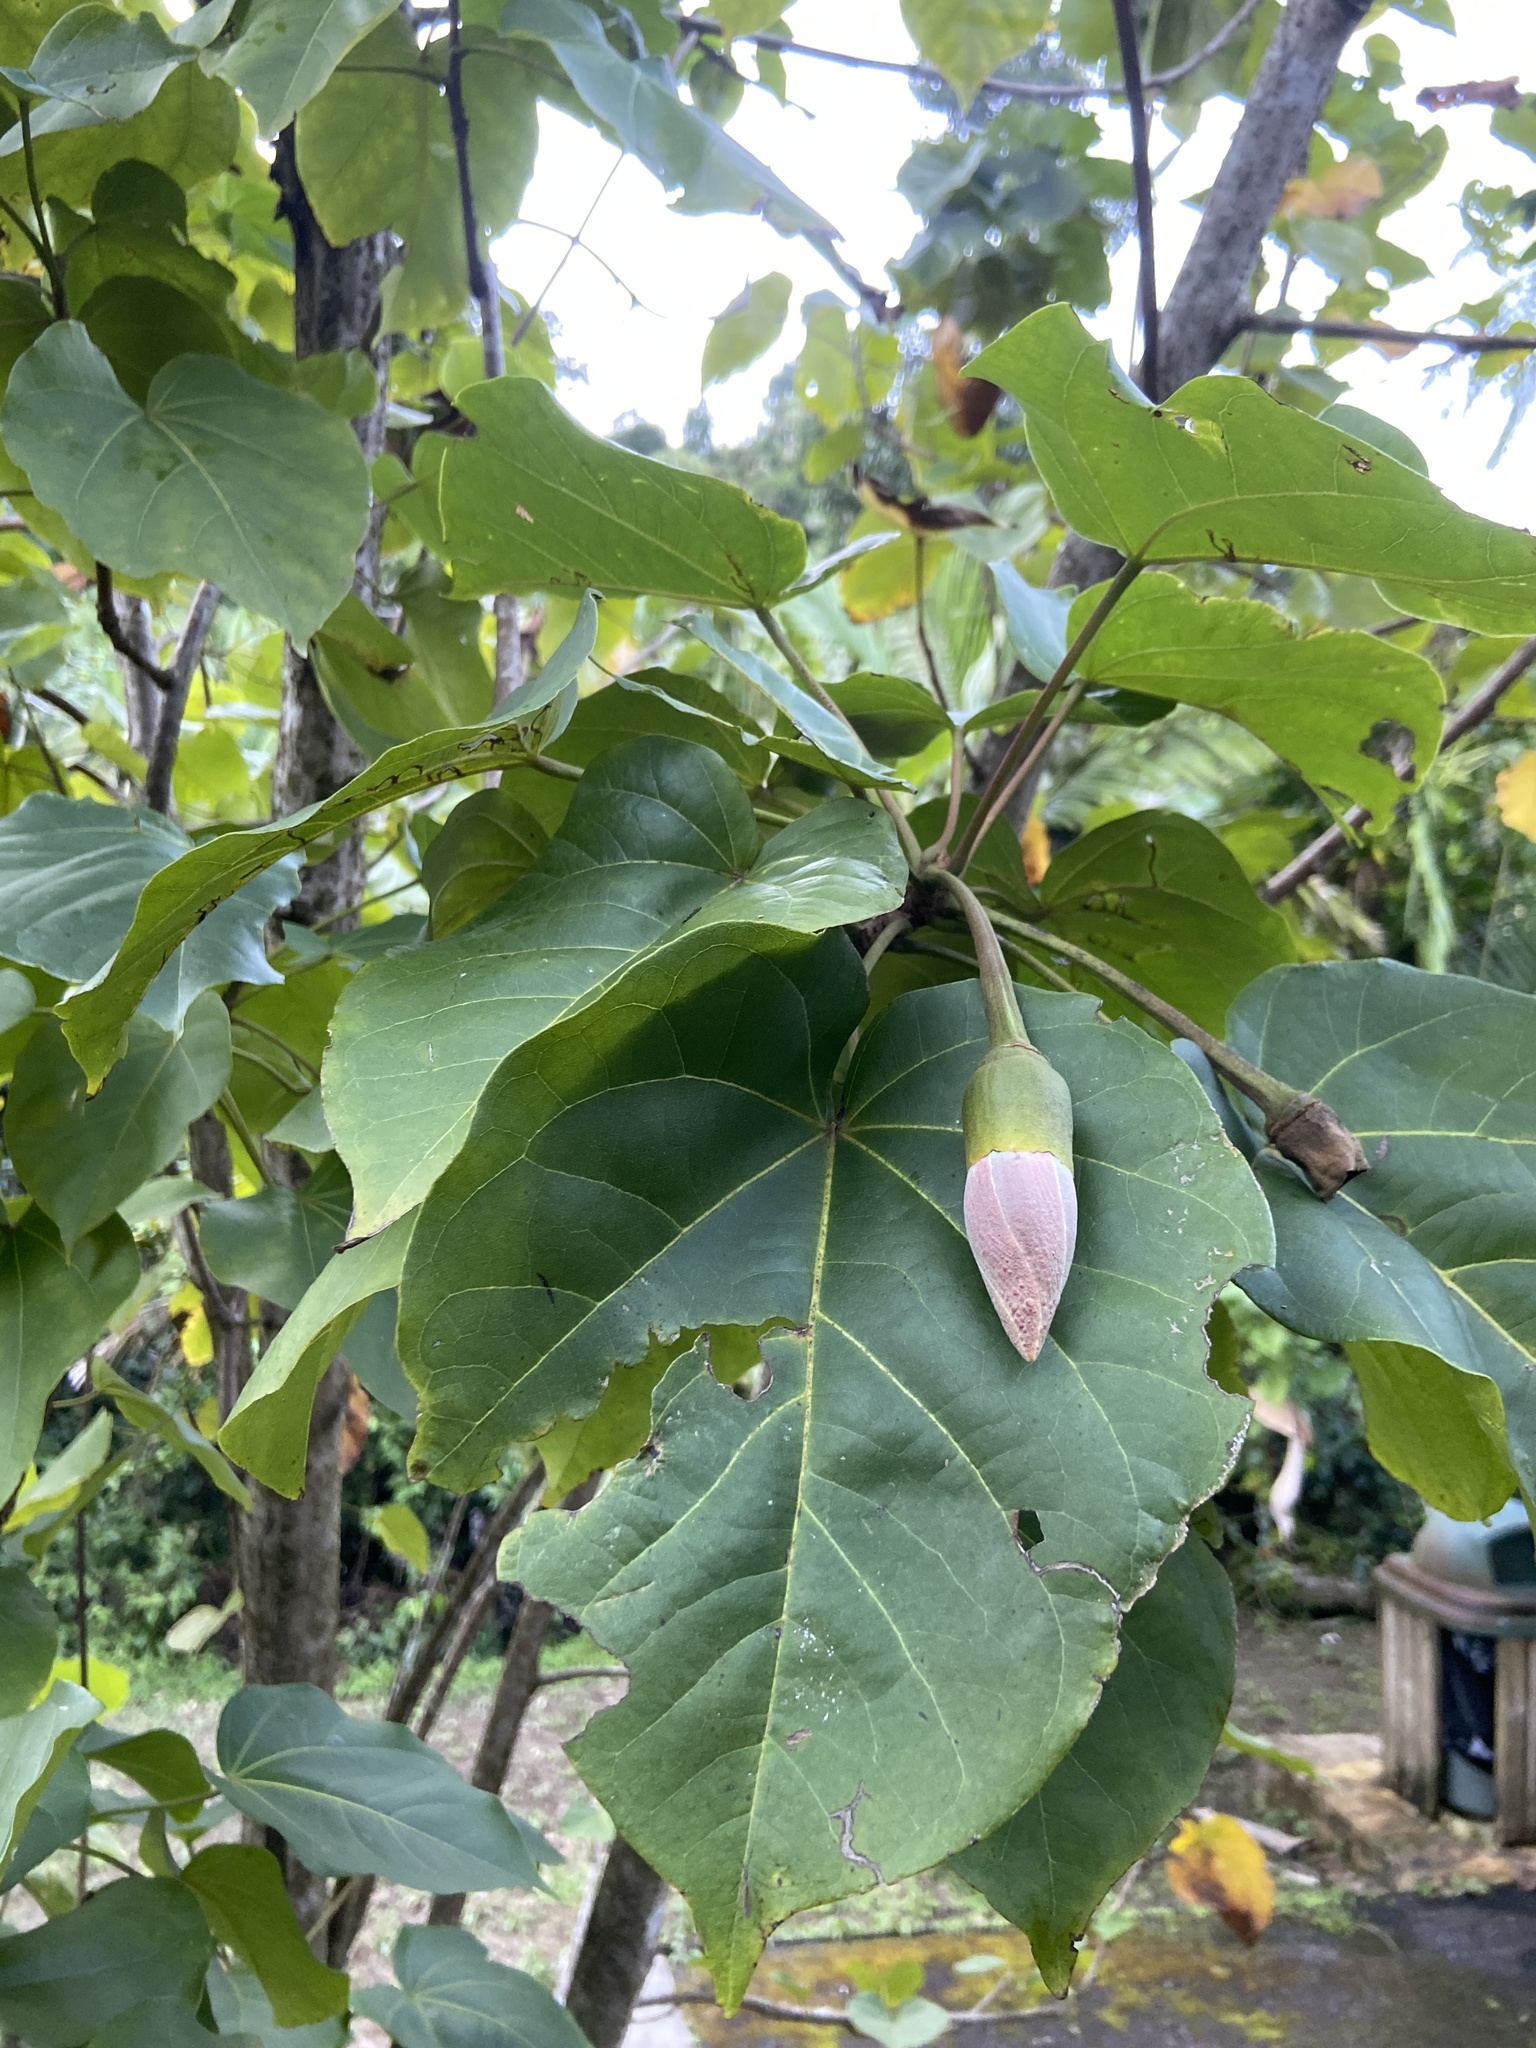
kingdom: Plantae
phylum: Tracheophyta
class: Magnoliopsida
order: Malvales
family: Malvaceae
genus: Thespesia
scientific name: Thespesia grandiflora
